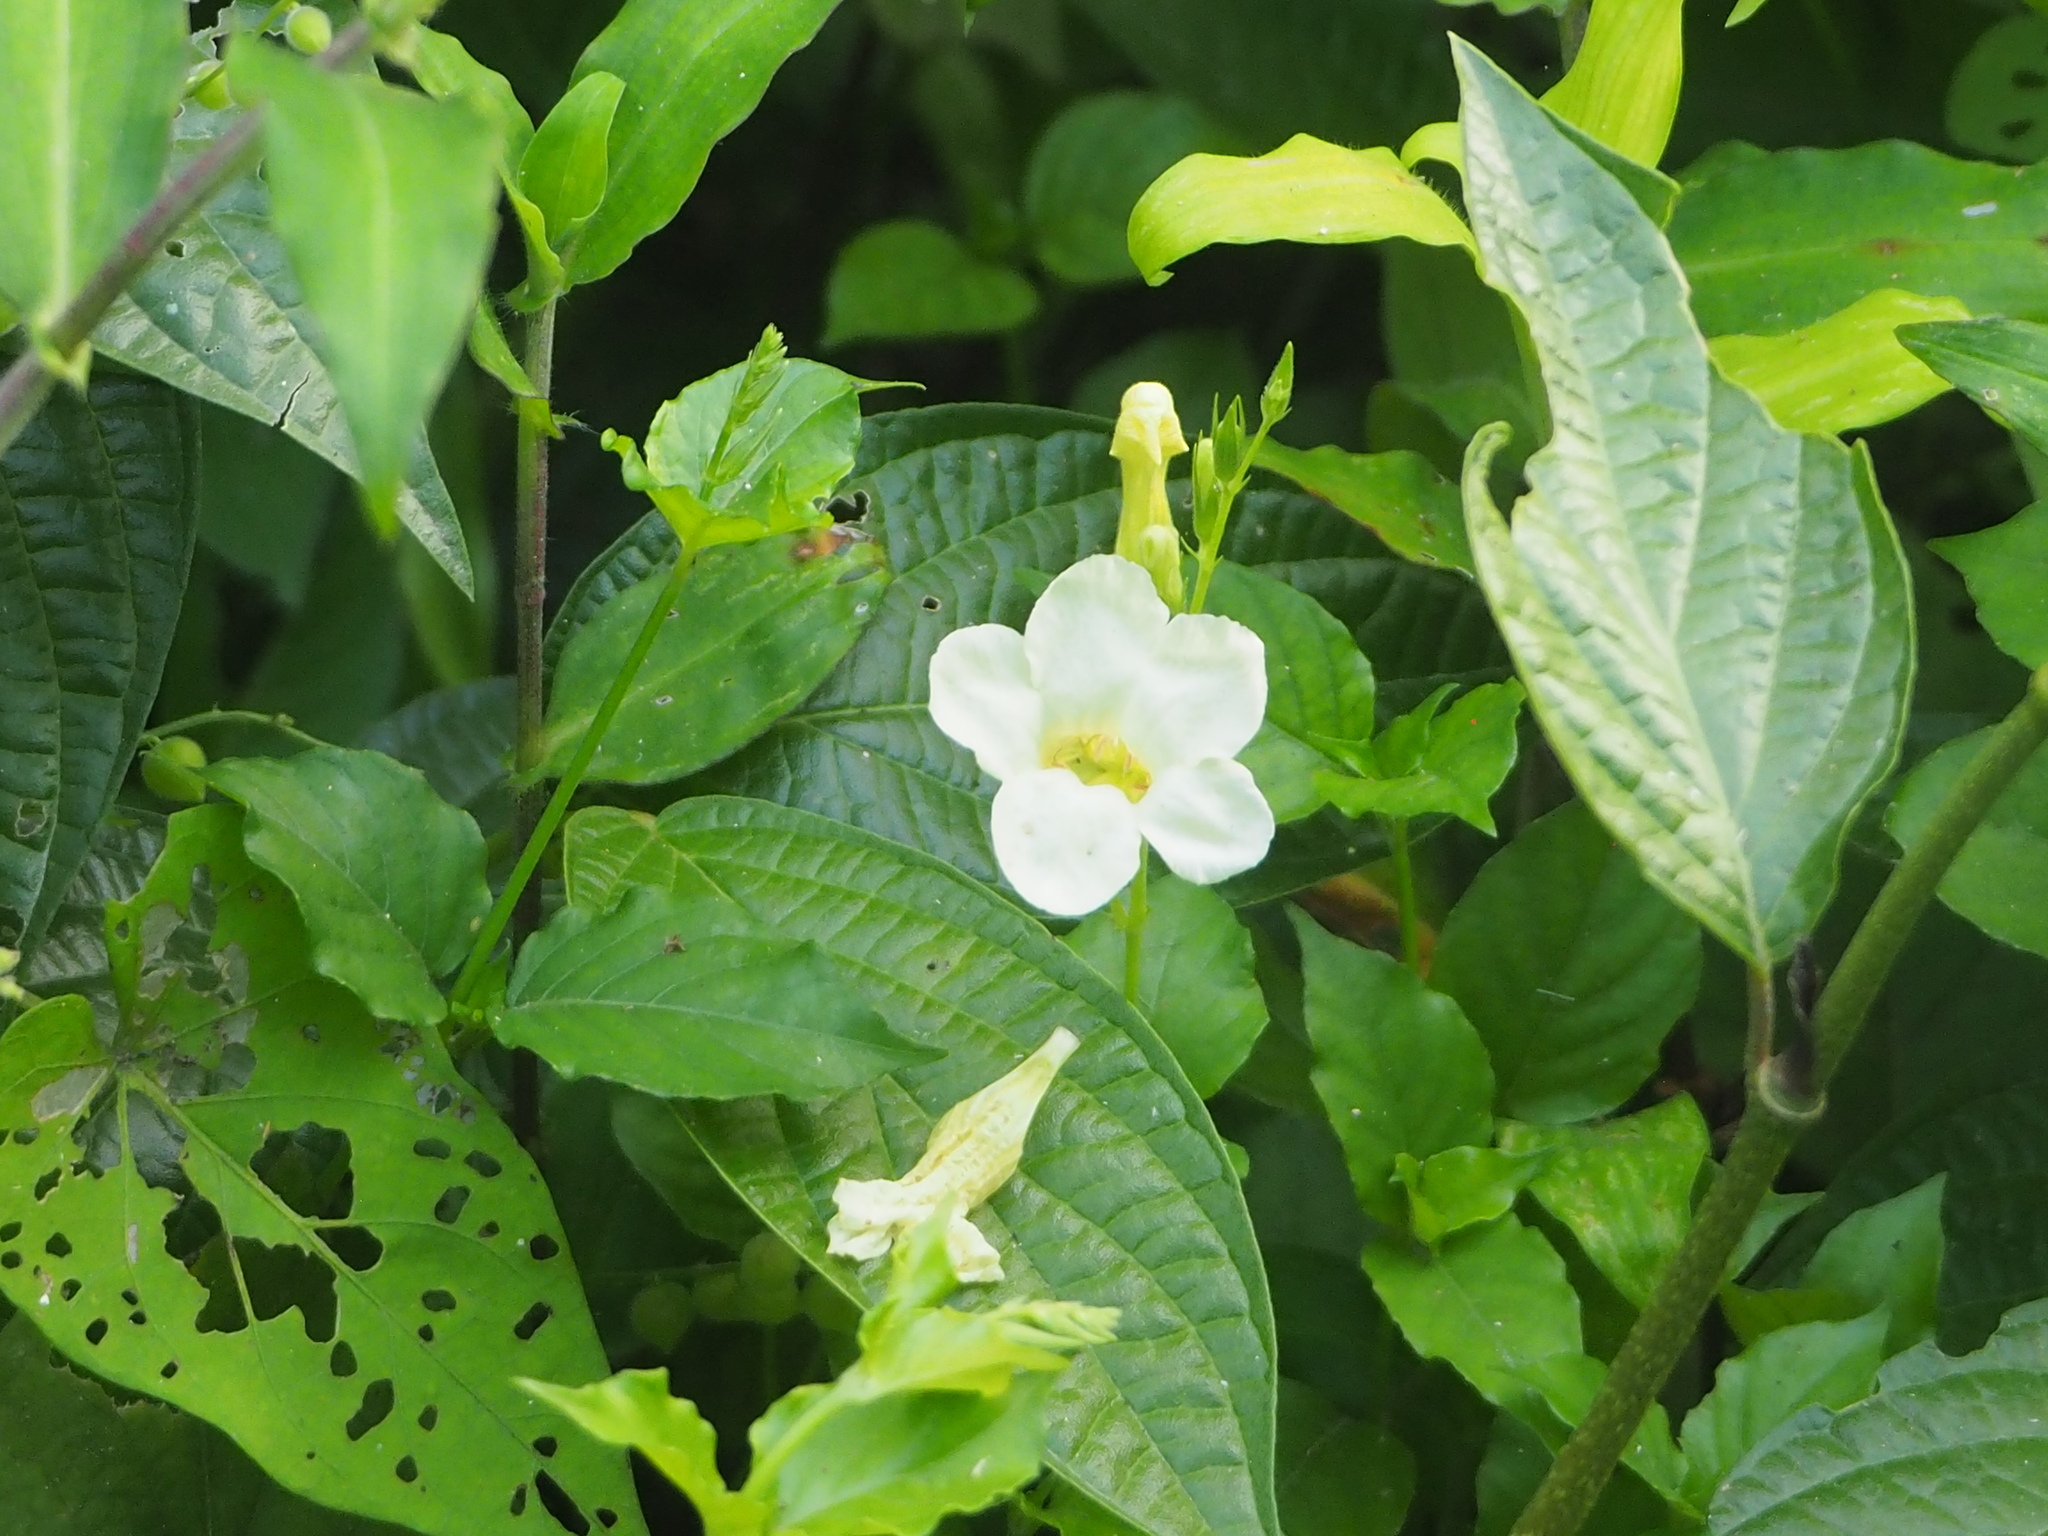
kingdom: Plantae
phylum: Tracheophyta
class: Magnoliopsida
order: Lamiales
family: Acanthaceae
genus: Asystasia
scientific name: Asystasia gangetica
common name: Chinese violet
